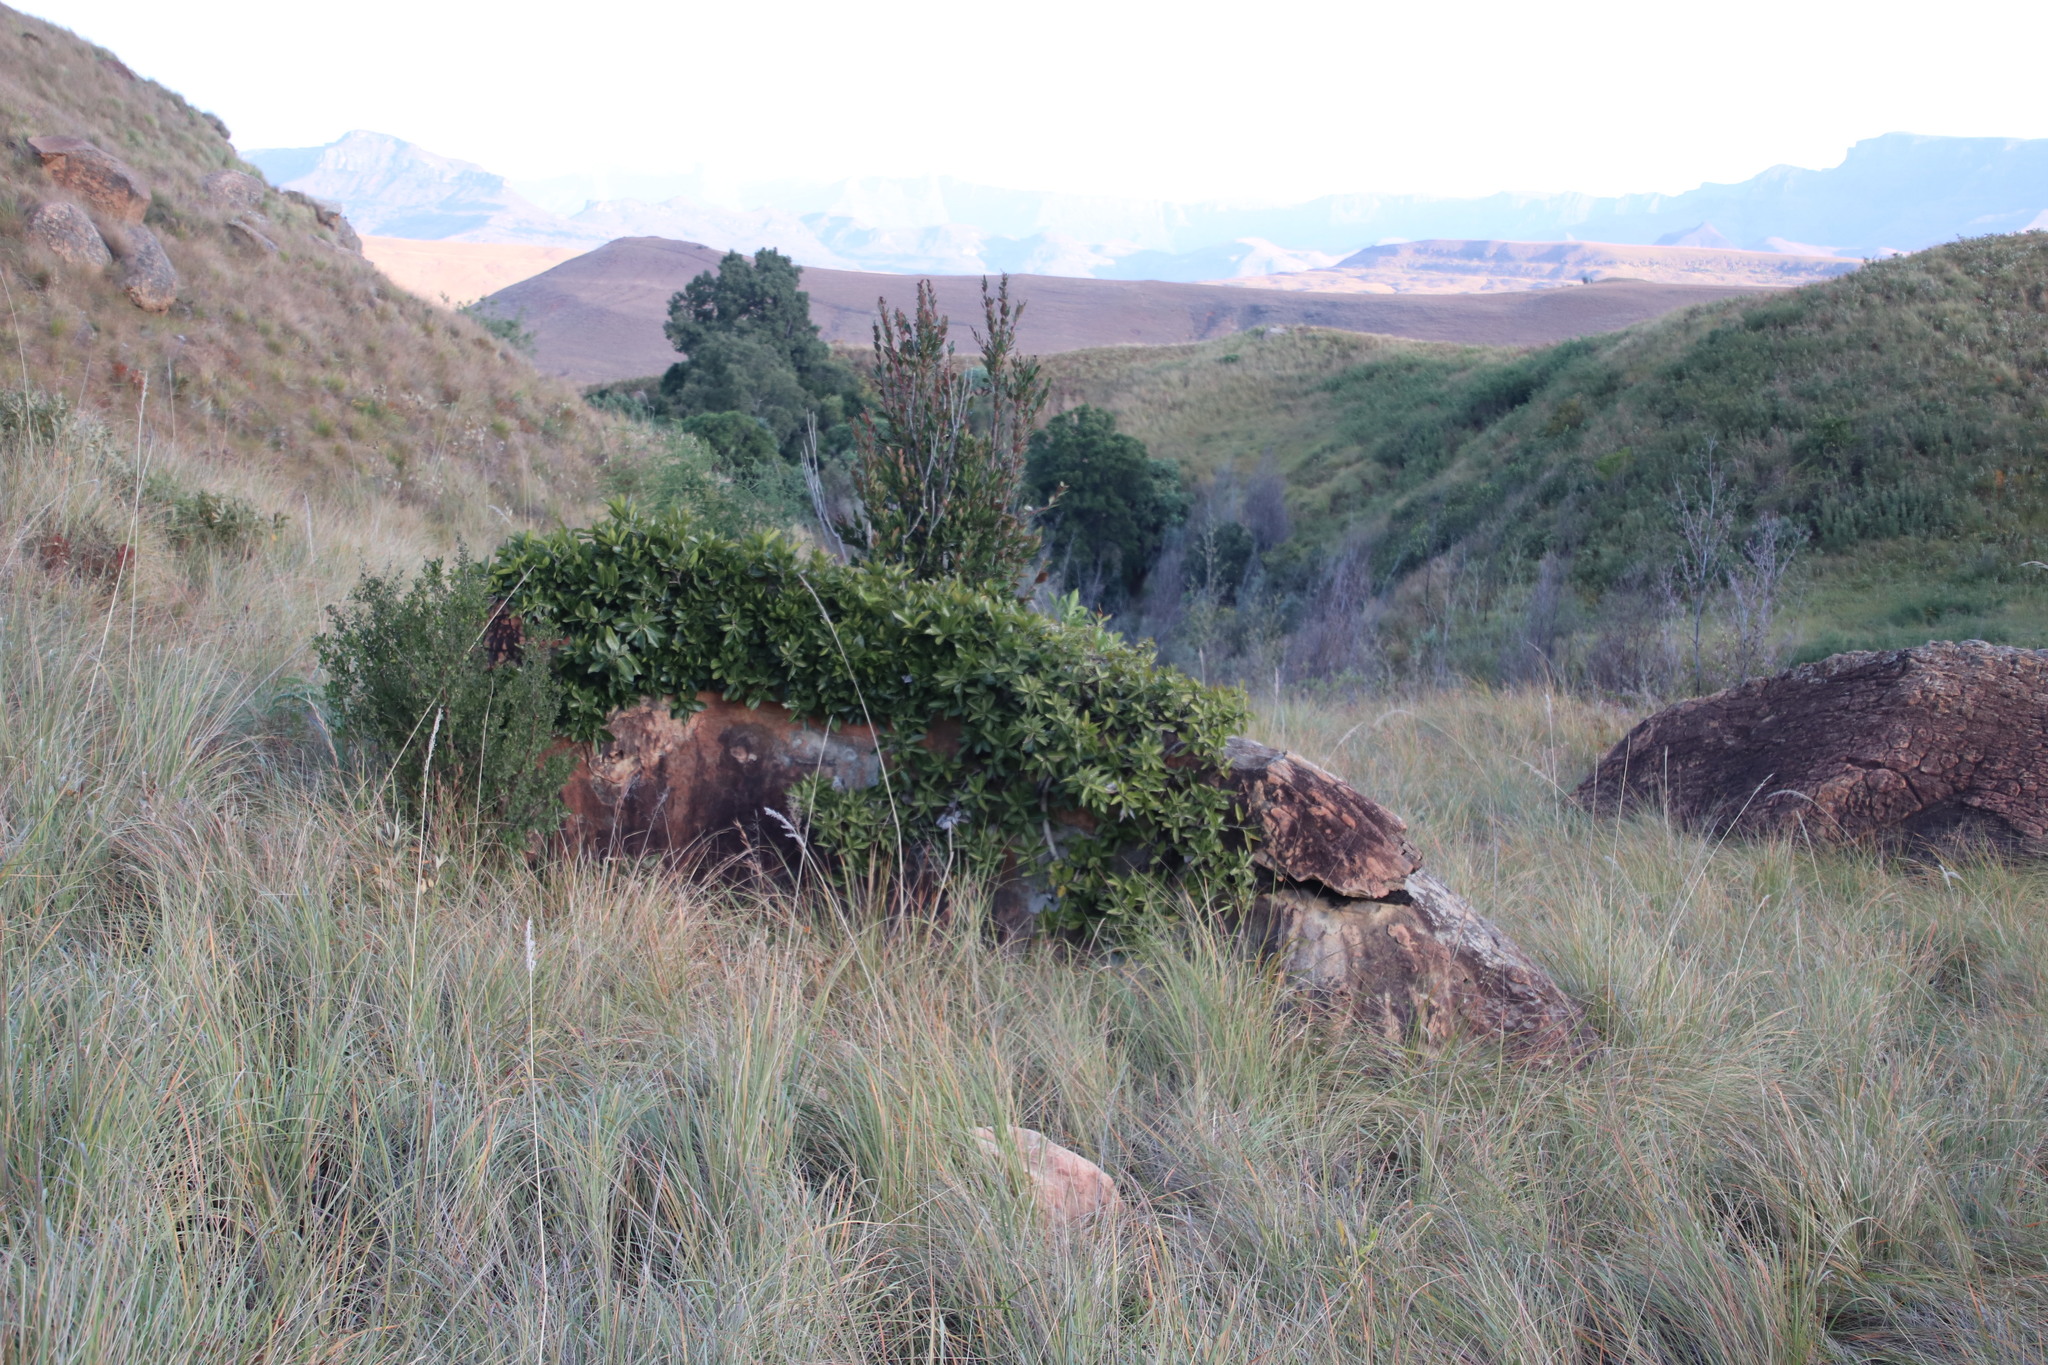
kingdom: Plantae
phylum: Tracheophyta
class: Magnoliopsida
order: Rosales
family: Moraceae
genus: Ficus
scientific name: Ficus ingens
